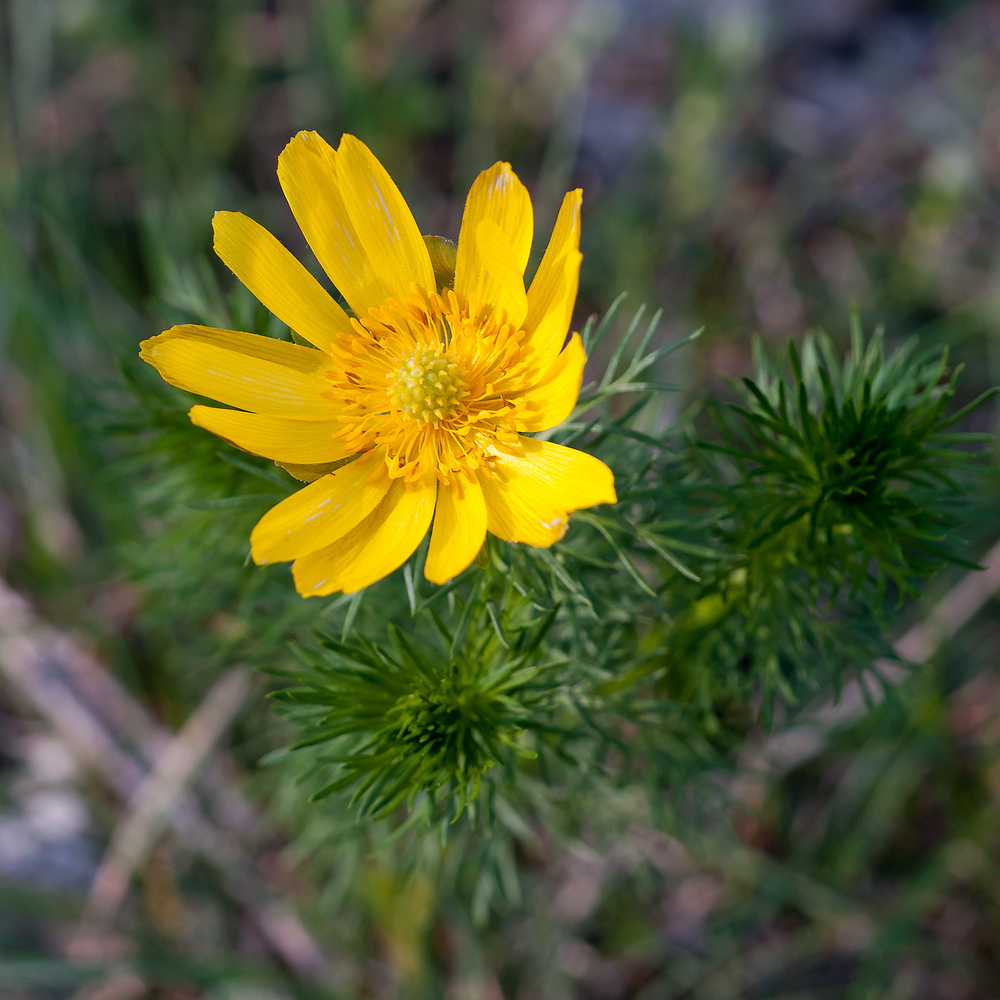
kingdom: Plantae
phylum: Tracheophyta
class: Magnoliopsida
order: Ranunculales
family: Ranunculaceae
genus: Adonis
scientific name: Adonis vernalis
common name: Yellow pheasants-eye
